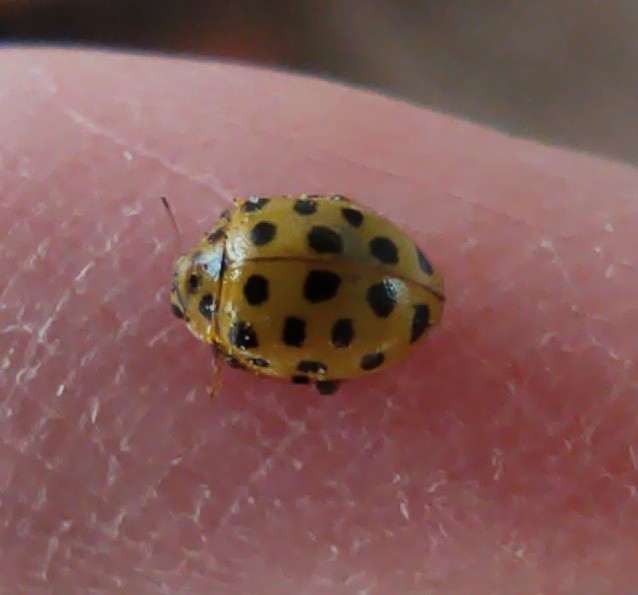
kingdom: Animalia
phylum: Arthropoda
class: Insecta
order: Coleoptera
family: Coccinellidae
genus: Psyllobora
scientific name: Psyllobora vigintiduopunctata
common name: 22-spot ladybird
